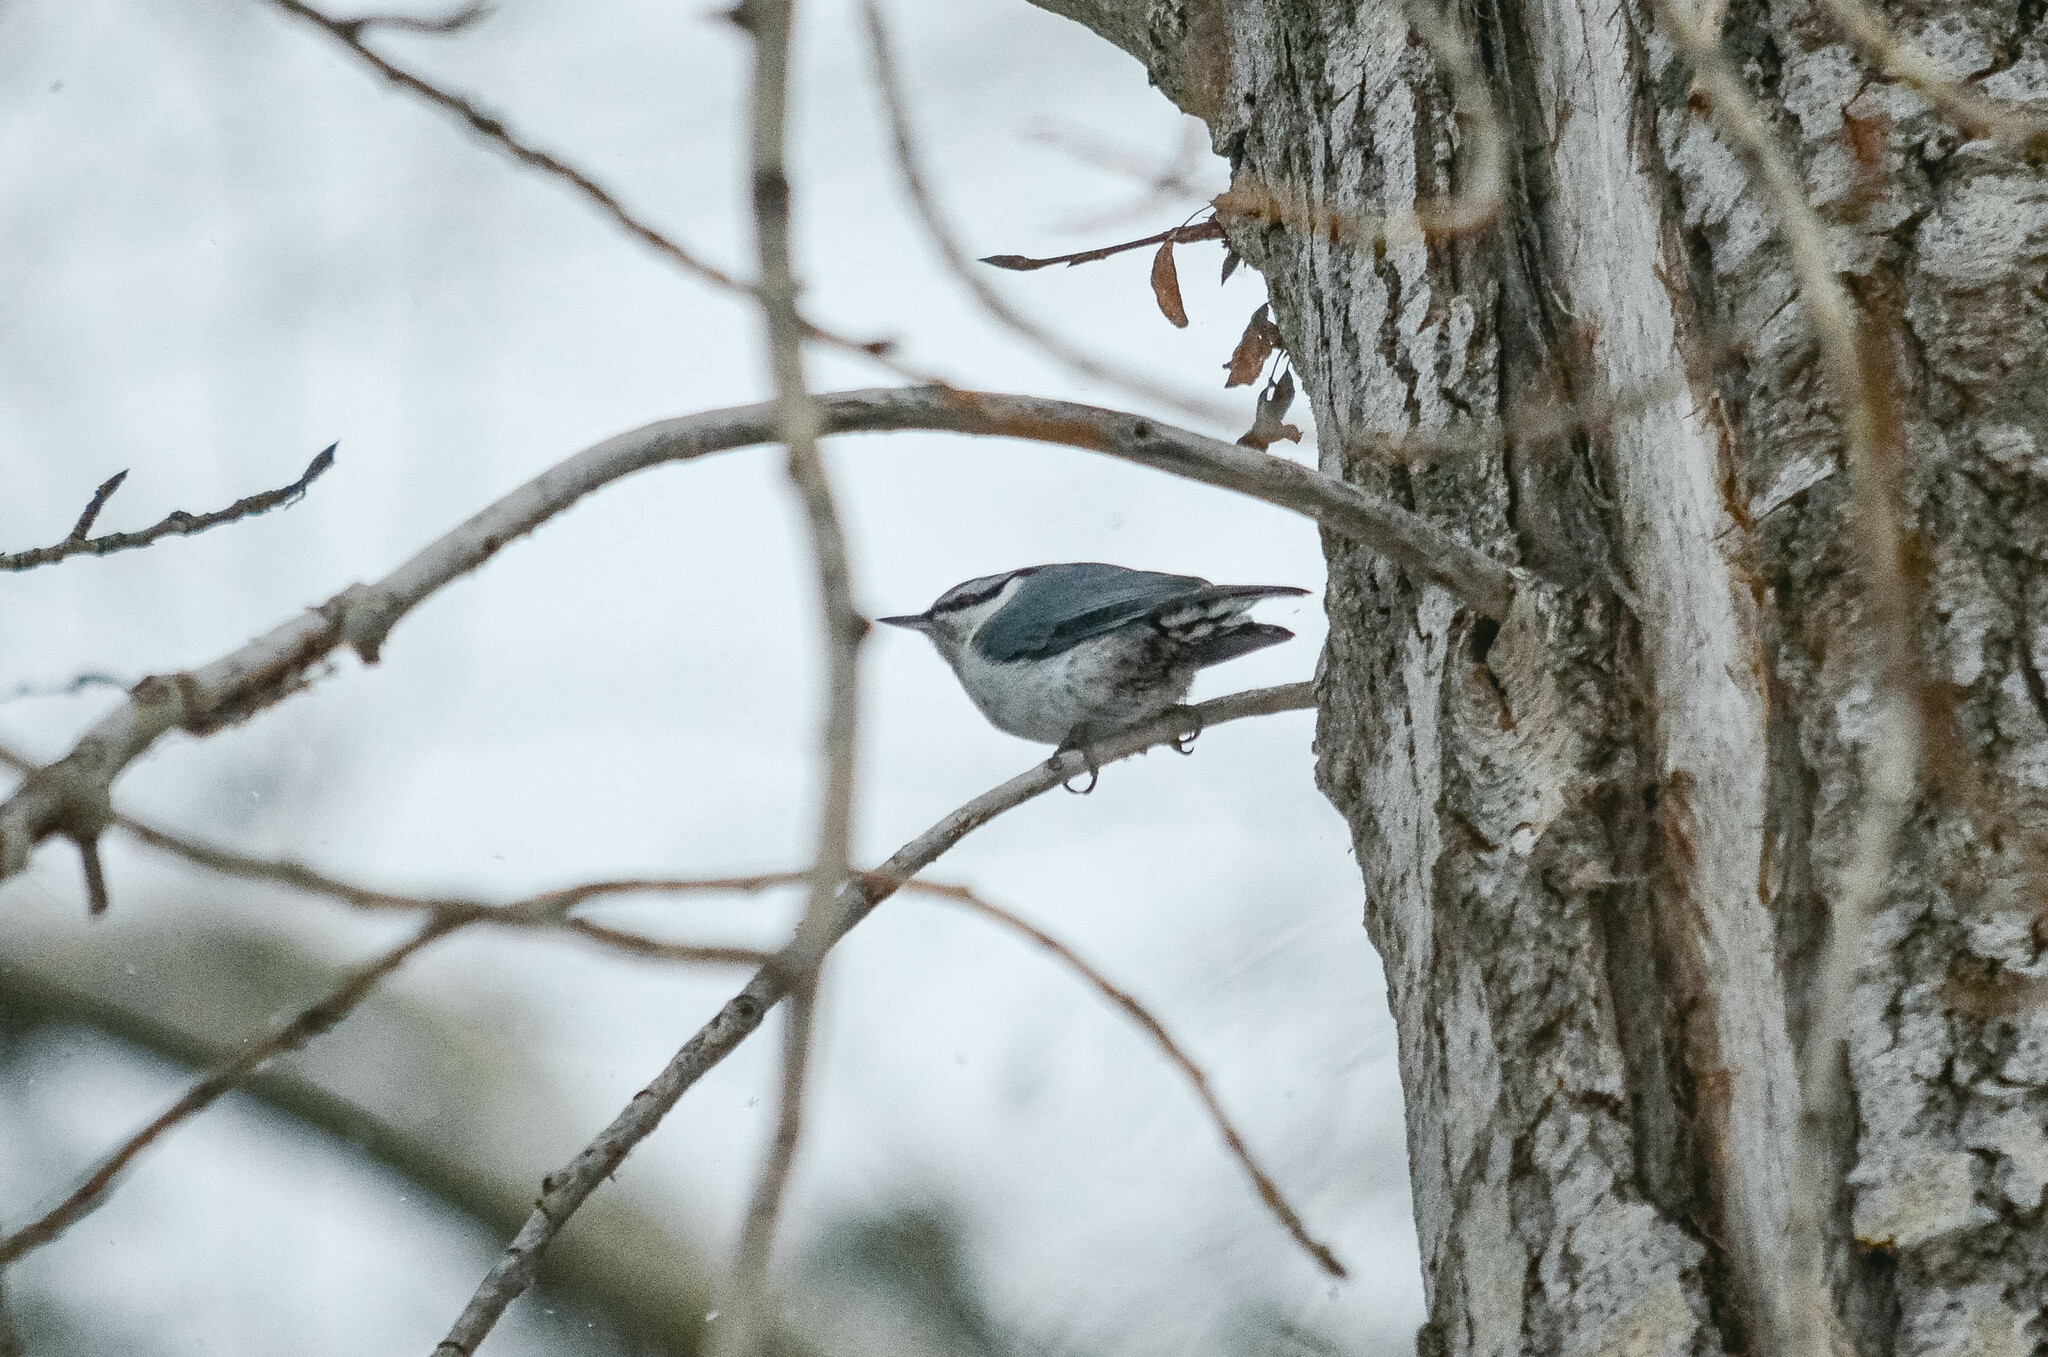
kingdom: Animalia
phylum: Chordata
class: Aves
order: Passeriformes
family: Sittidae
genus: Sitta
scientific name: Sitta europaea
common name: Eurasian nuthatch
